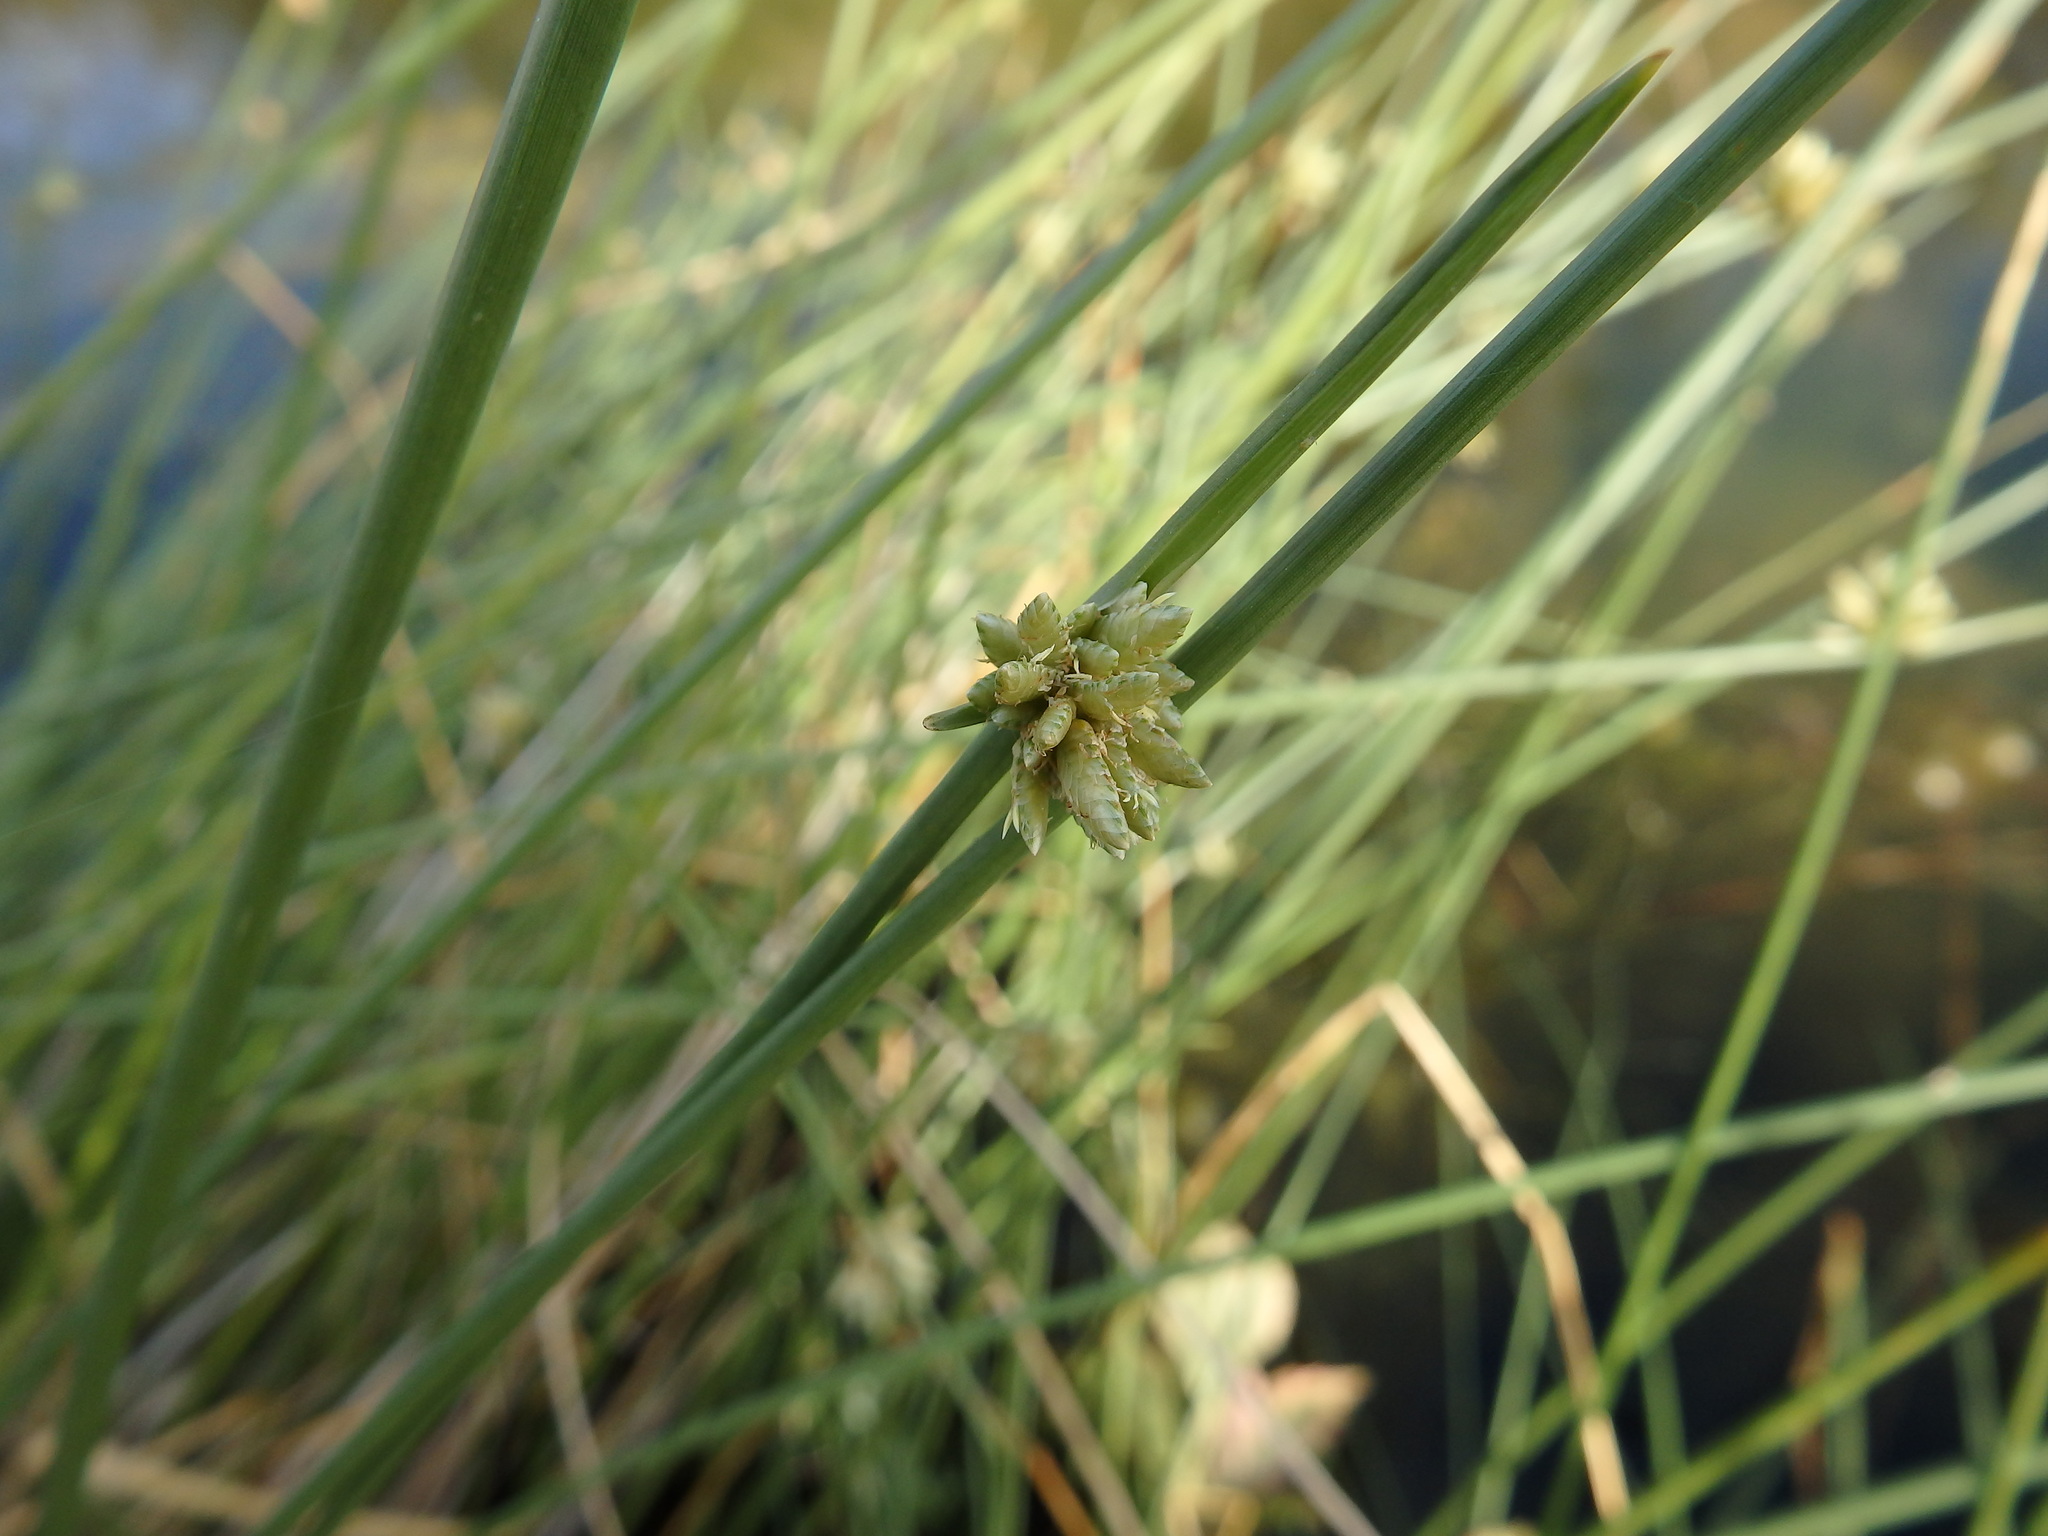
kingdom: Plantae
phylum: Tracheophyta
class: Liliopsida
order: Poales
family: Cyperaceae
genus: Cyperus
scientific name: Cyperus laevigatus
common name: Smooth flat sedge
